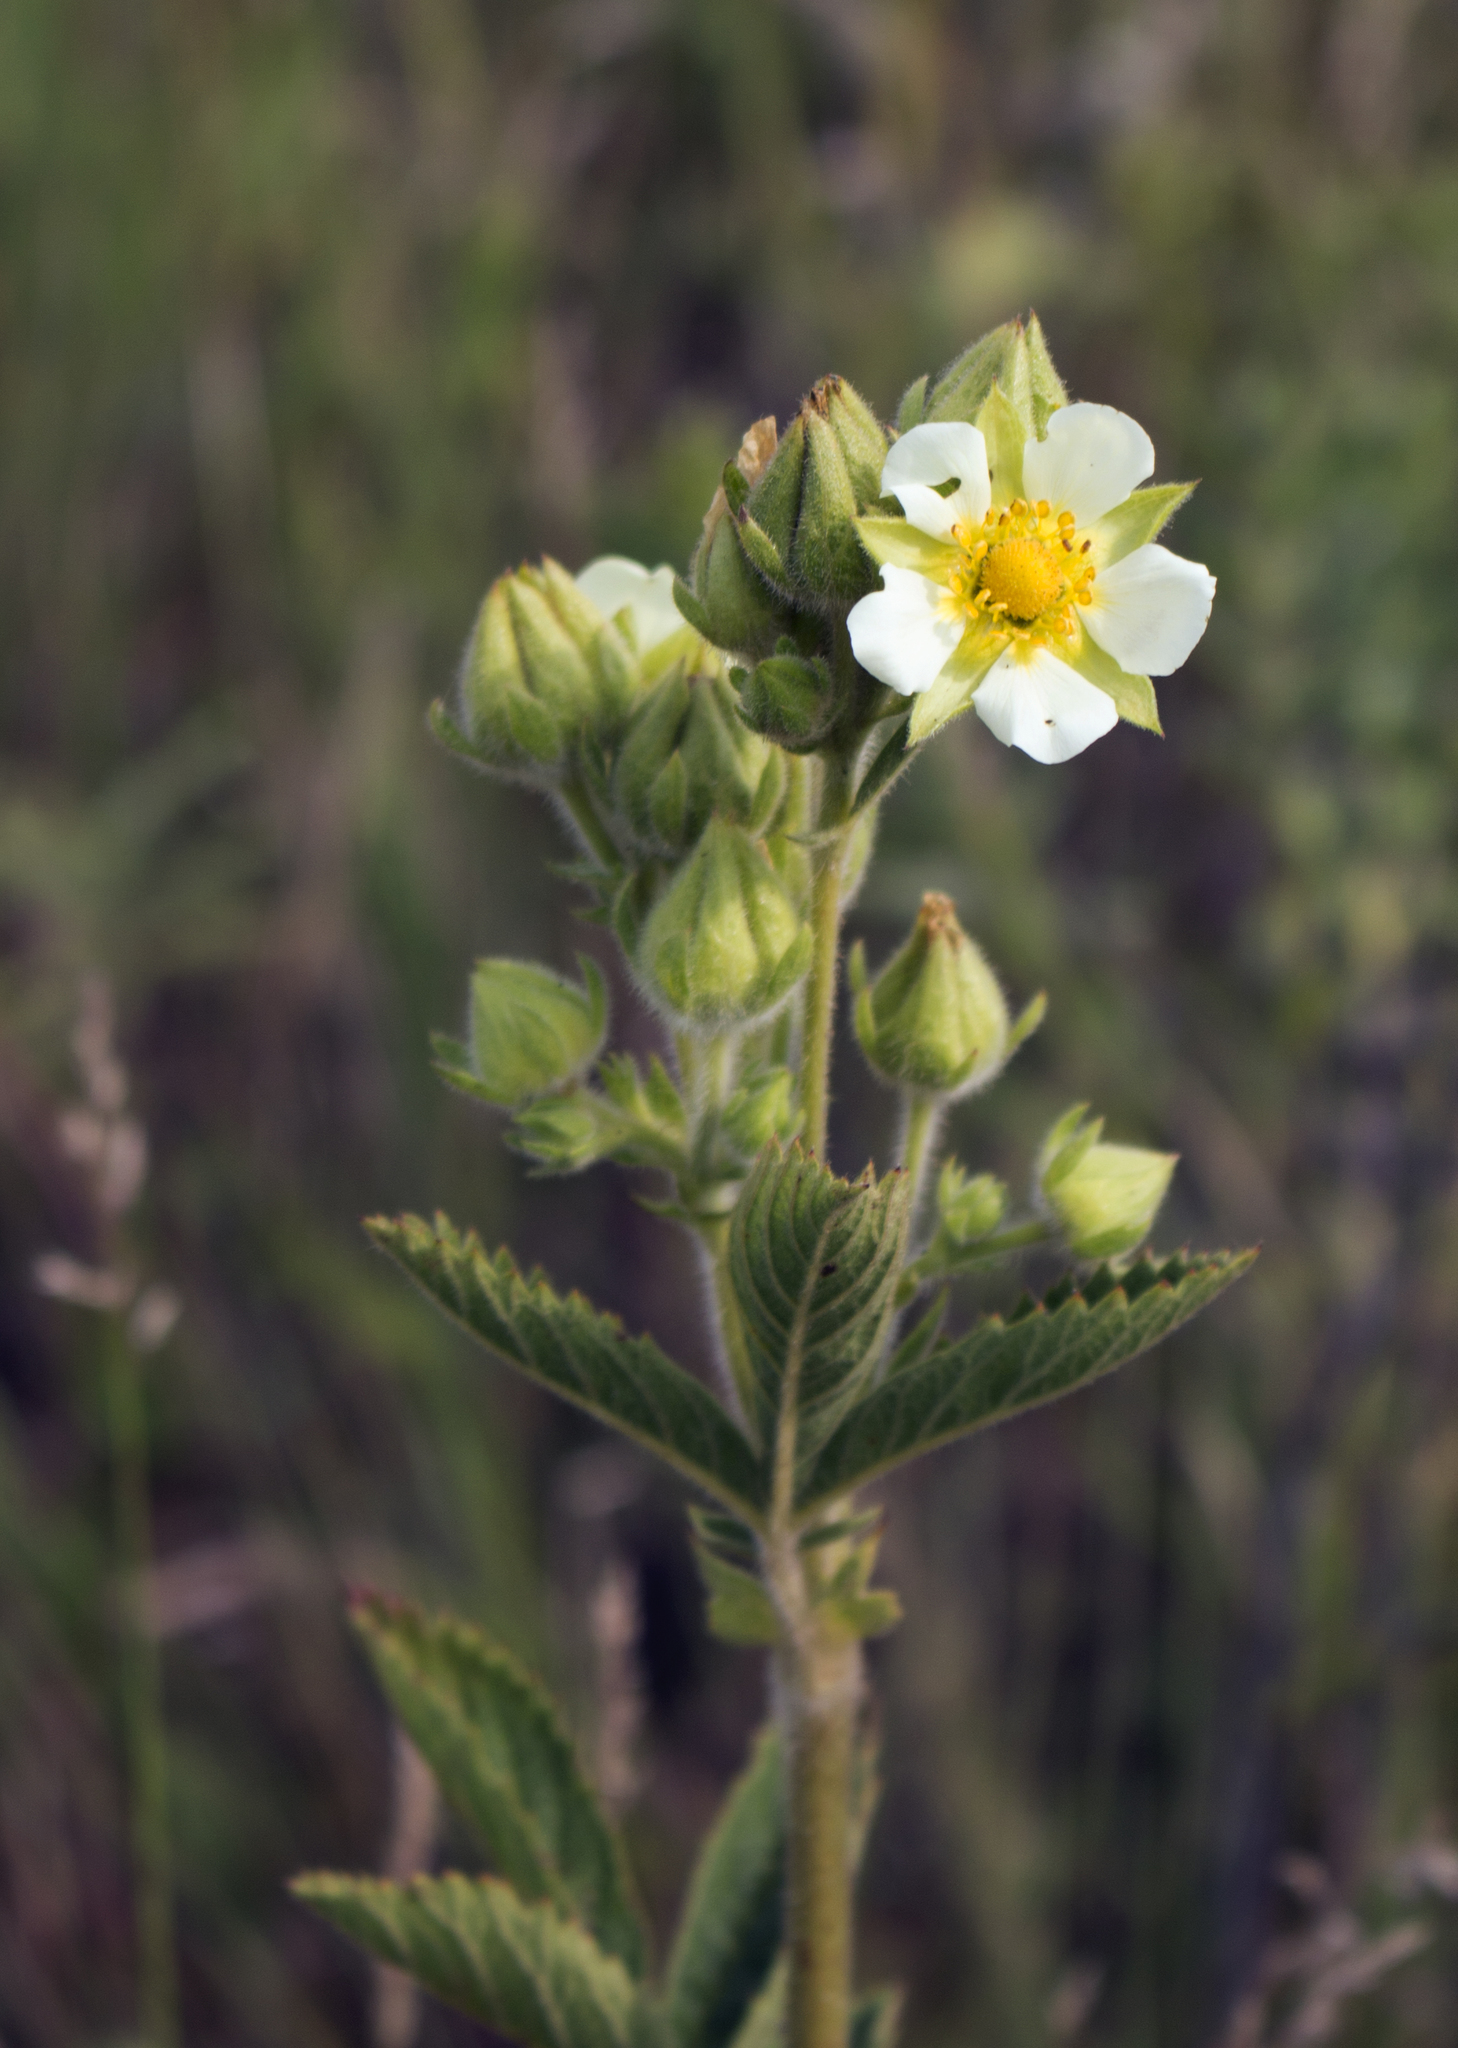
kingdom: Plantae
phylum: Tracheophyta
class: Magnoliopsida
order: Rosales
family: Rosaceae
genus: Drymocallis
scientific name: Drymocallis arguta
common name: Tall cinquefoil
